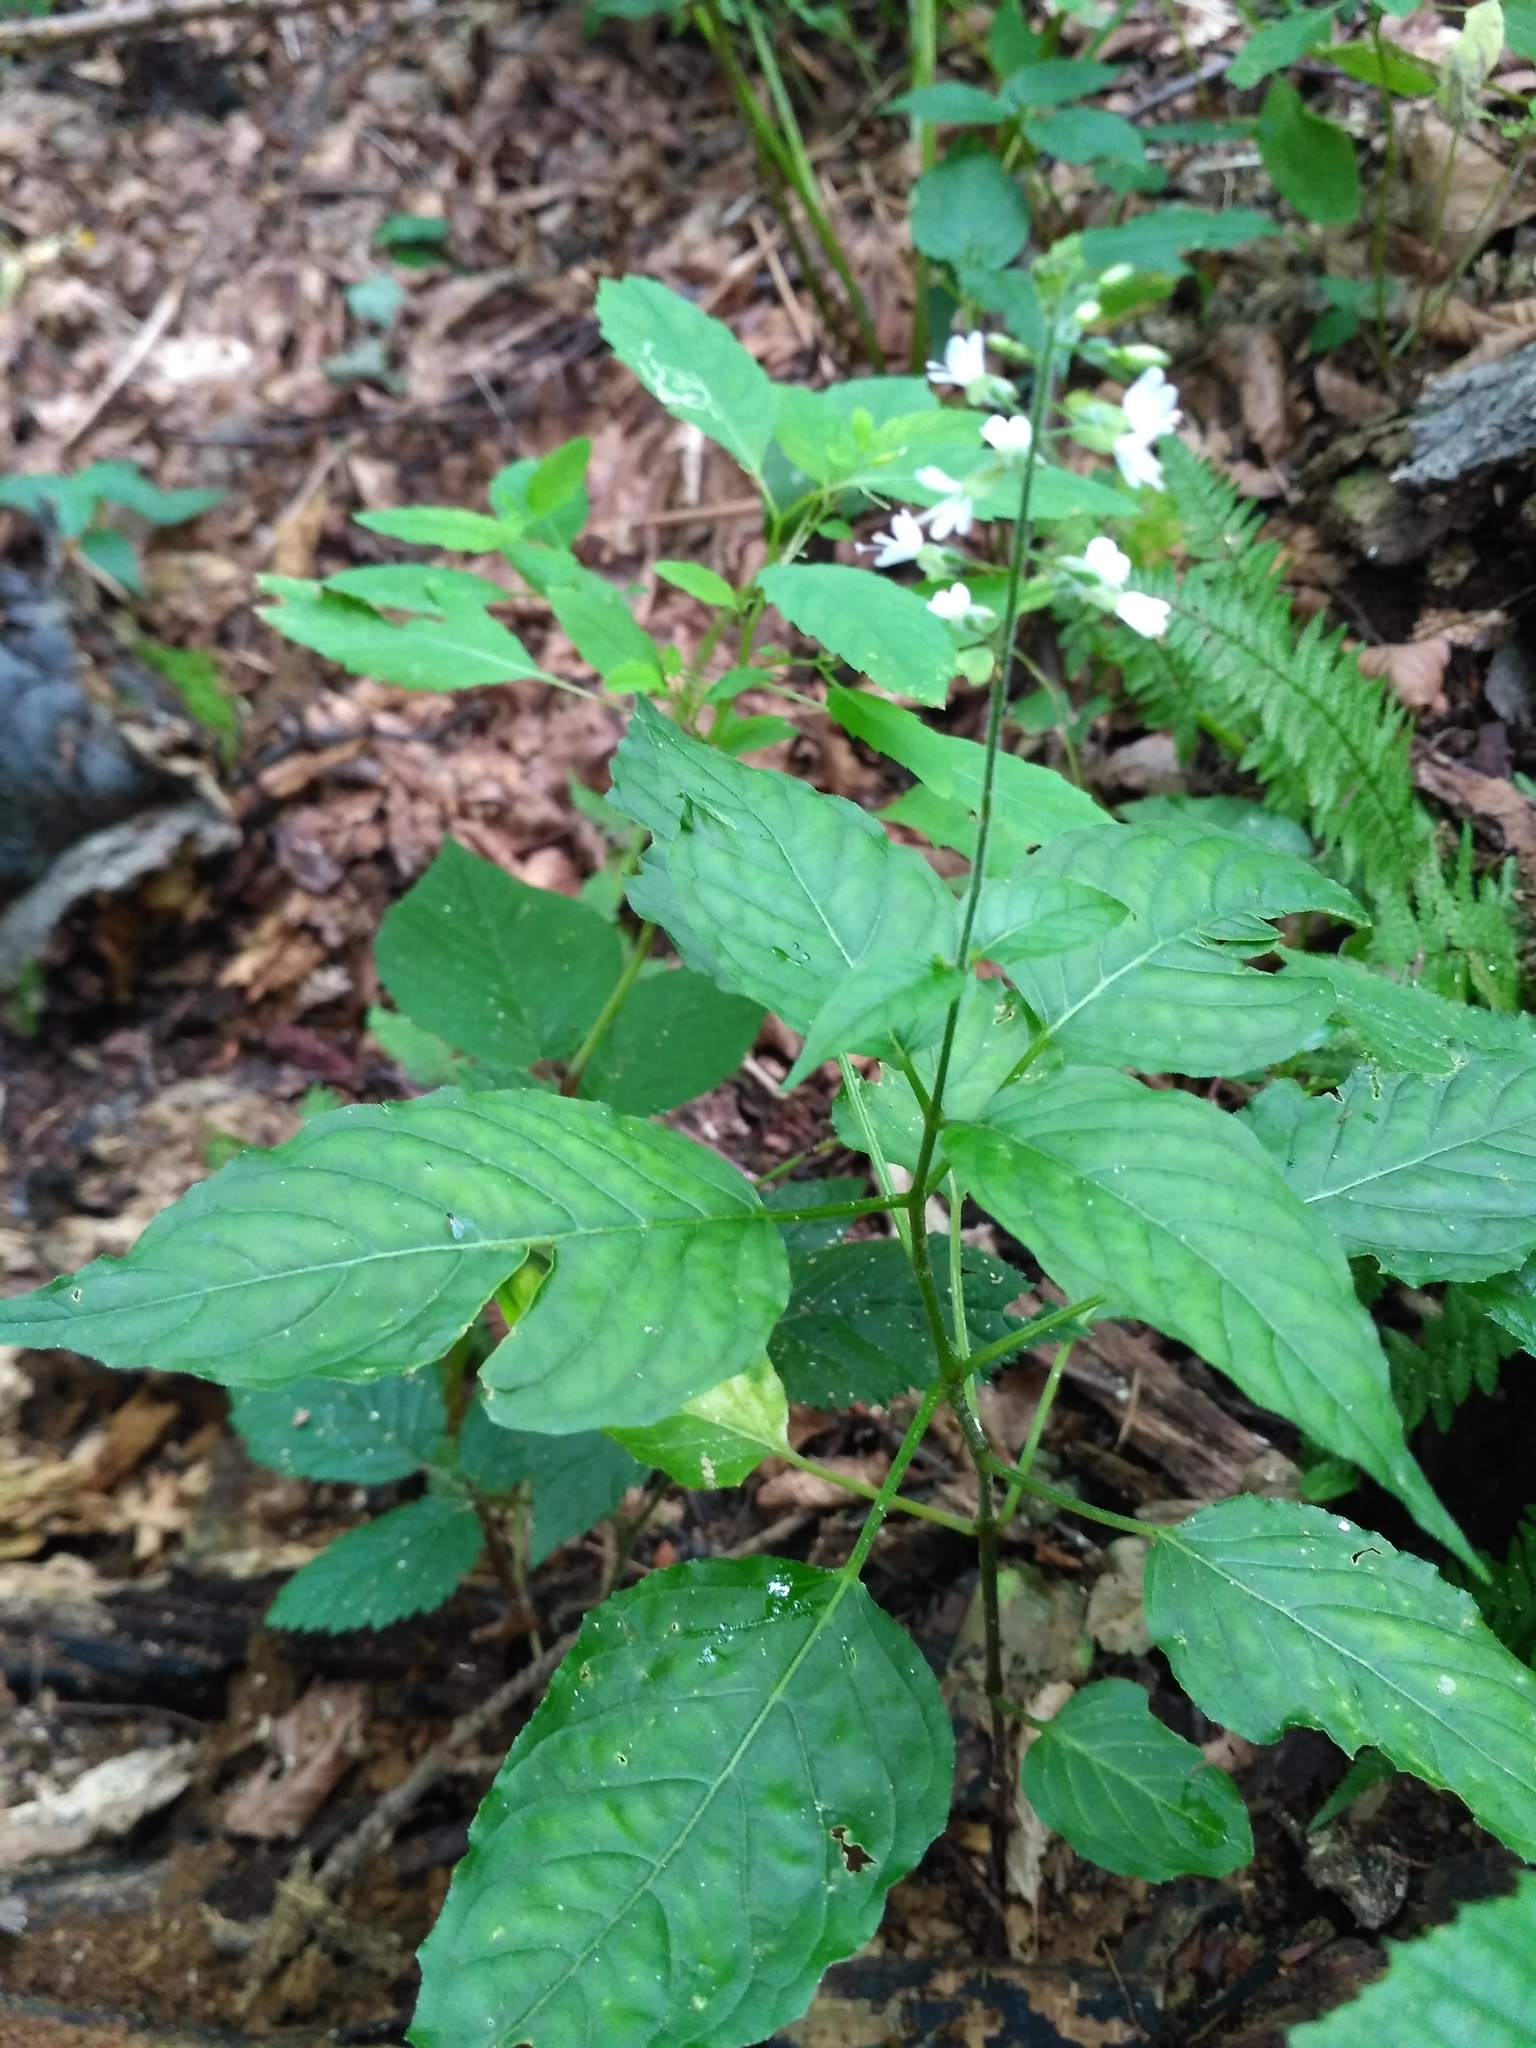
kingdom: Plantae
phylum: Tracheophyta
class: Magnoliopsida
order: Myrtales
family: Onagraceae
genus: Circaea
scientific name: Circaea lutetiana
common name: Enchanter's-nightshade
